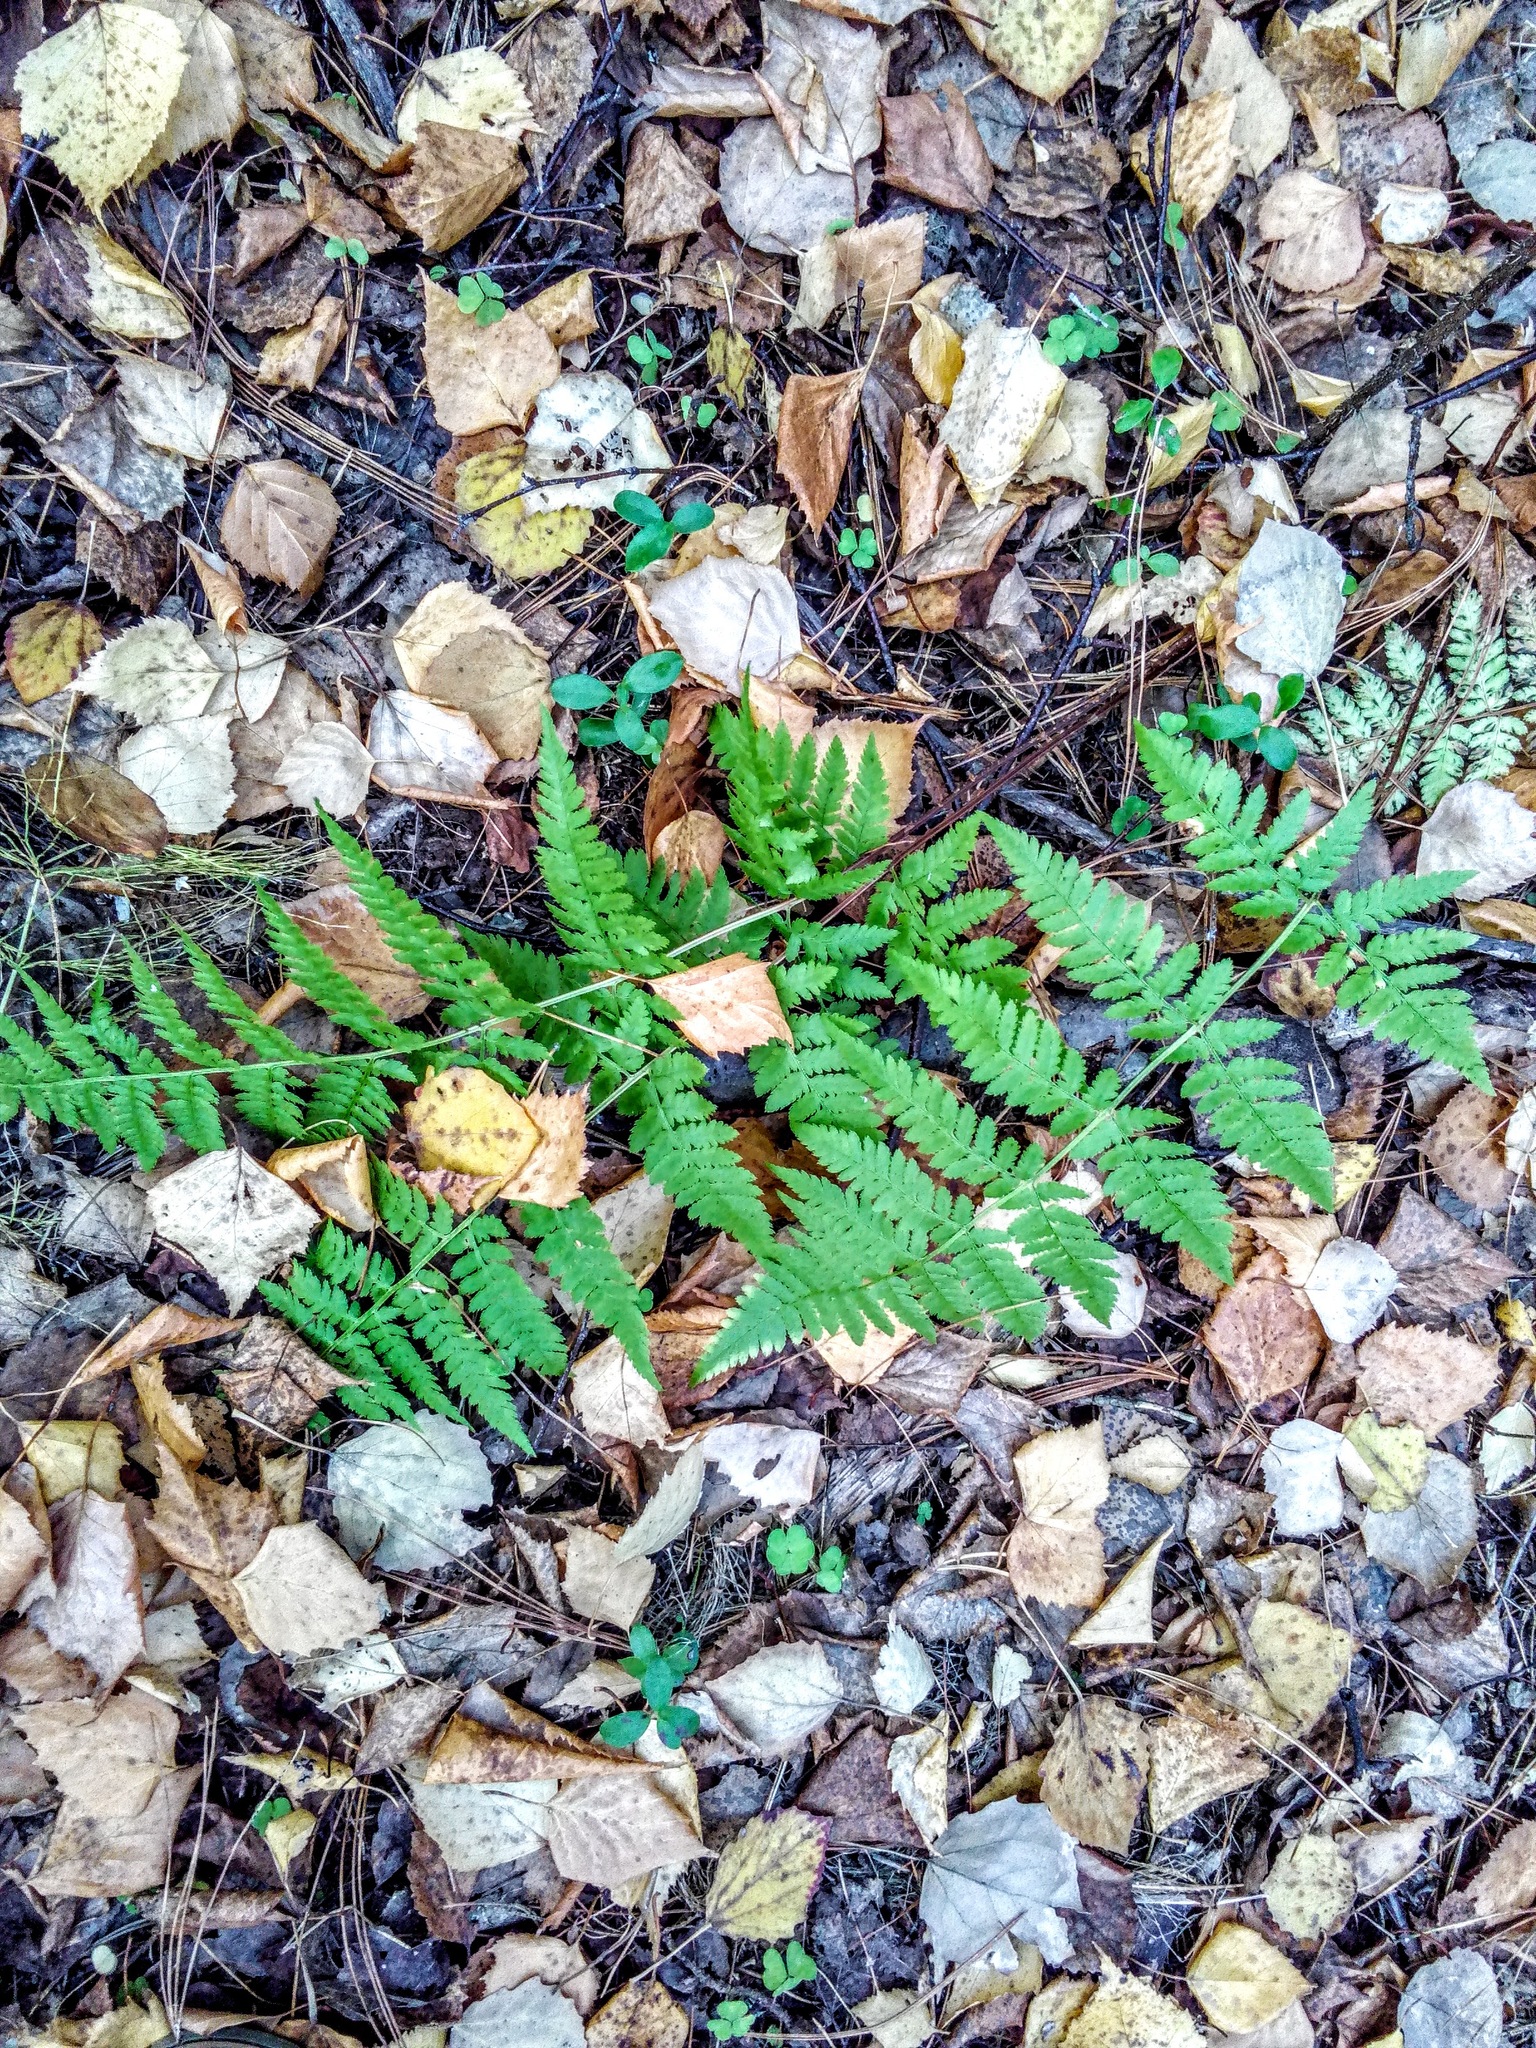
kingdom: Plantae
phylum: Tracheophyta
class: Polypodiopsida
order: Polypodiales
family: Dryopteridaceae
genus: Dryopteris
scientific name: Dryopteris carthusiana
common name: Narrow buckler-fern
